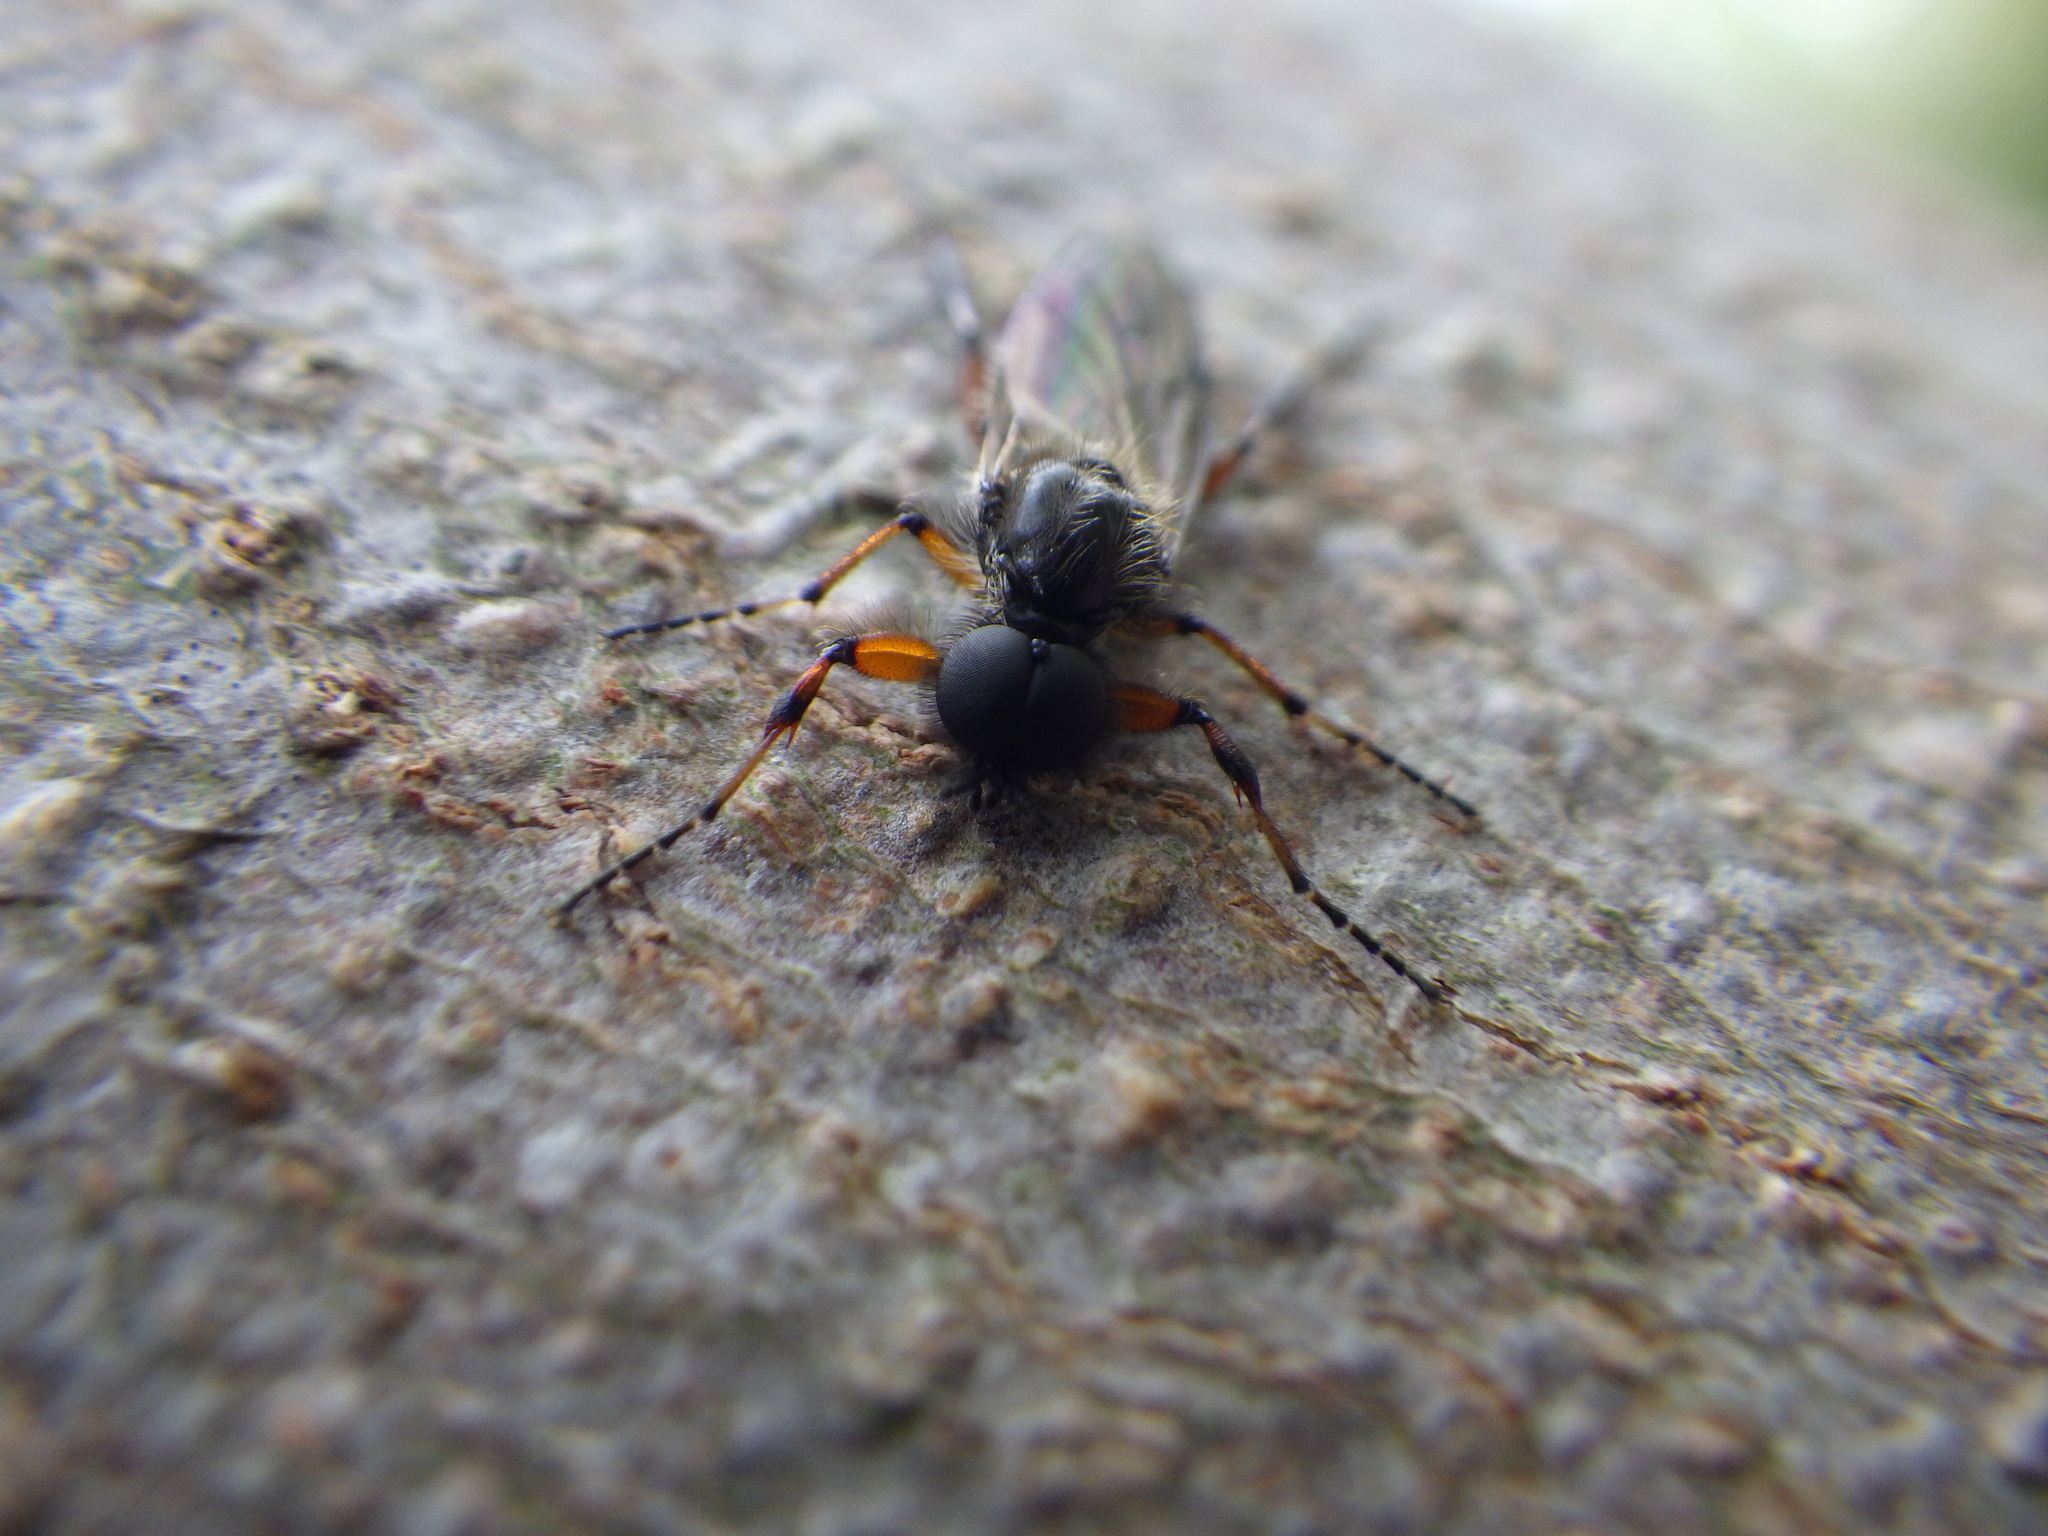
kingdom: Animalia
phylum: Arthropoda
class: Insecta
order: Diptera
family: Bibionidae
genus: Bibio
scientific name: Bibio xanthopus
